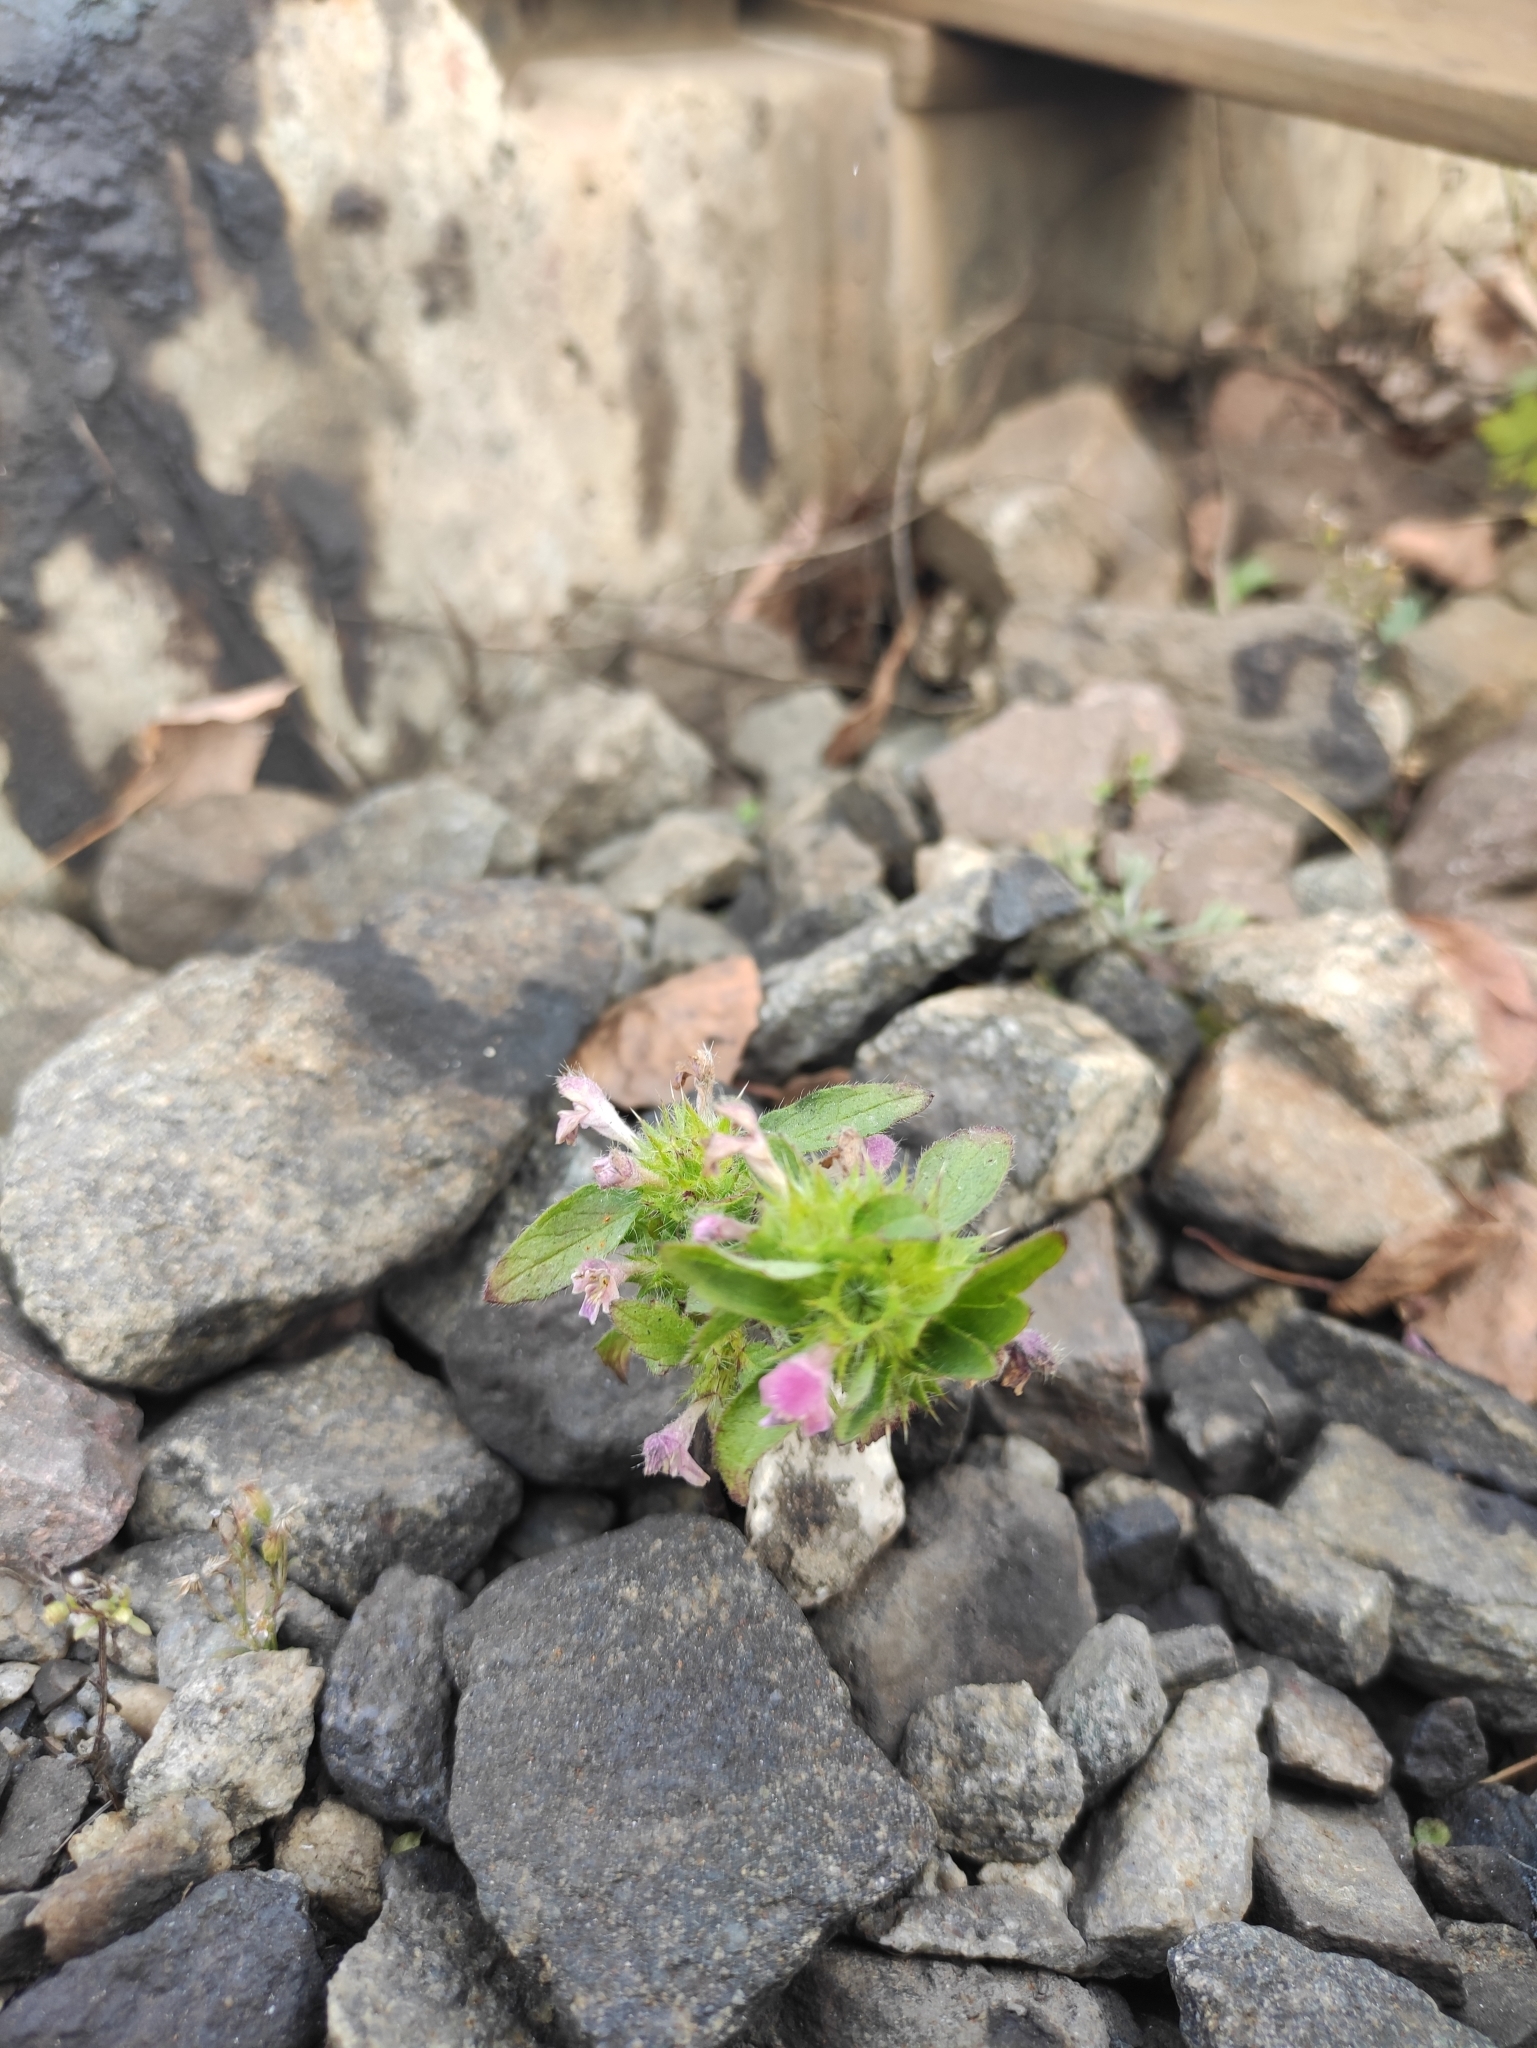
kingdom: Plantae
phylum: Tracheophyta
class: Magnoliopsida
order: Lamiales
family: Lamiaceae
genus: Galeopsis
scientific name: Galeopsis bifida
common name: Bifid hemp-nettle
